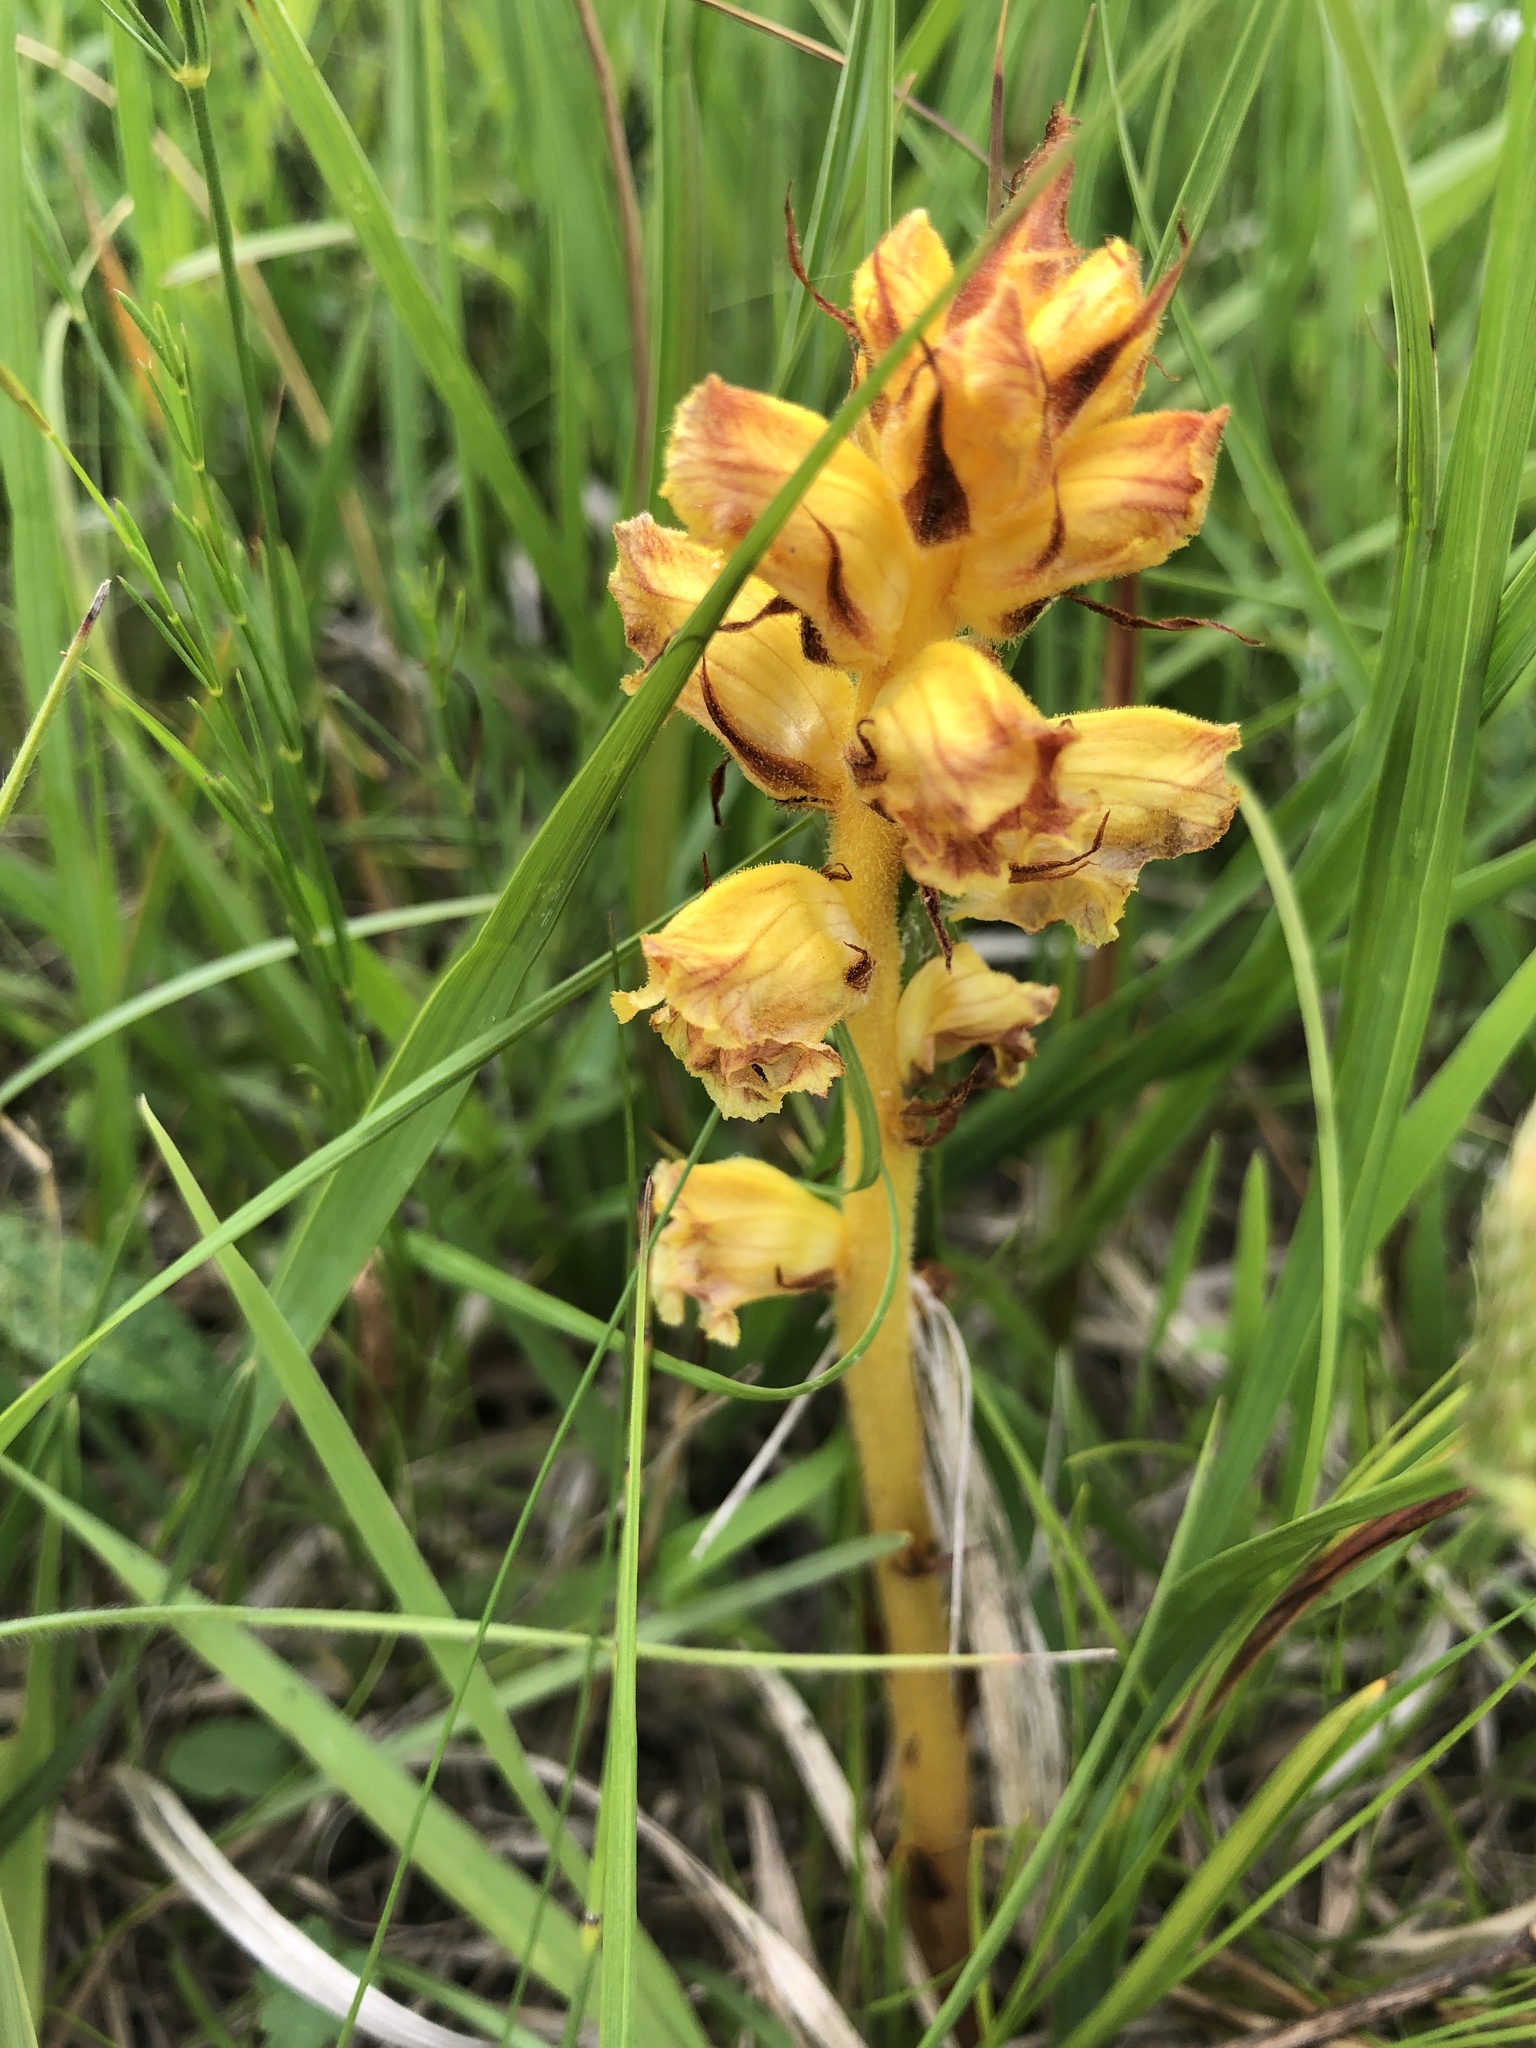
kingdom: Plantae
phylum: Tracheophyta
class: Magnoliopsida
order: Lamiales
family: Orobanchaceae
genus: Orobanche
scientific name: Orobanche gracilis
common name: Slender broomrape
